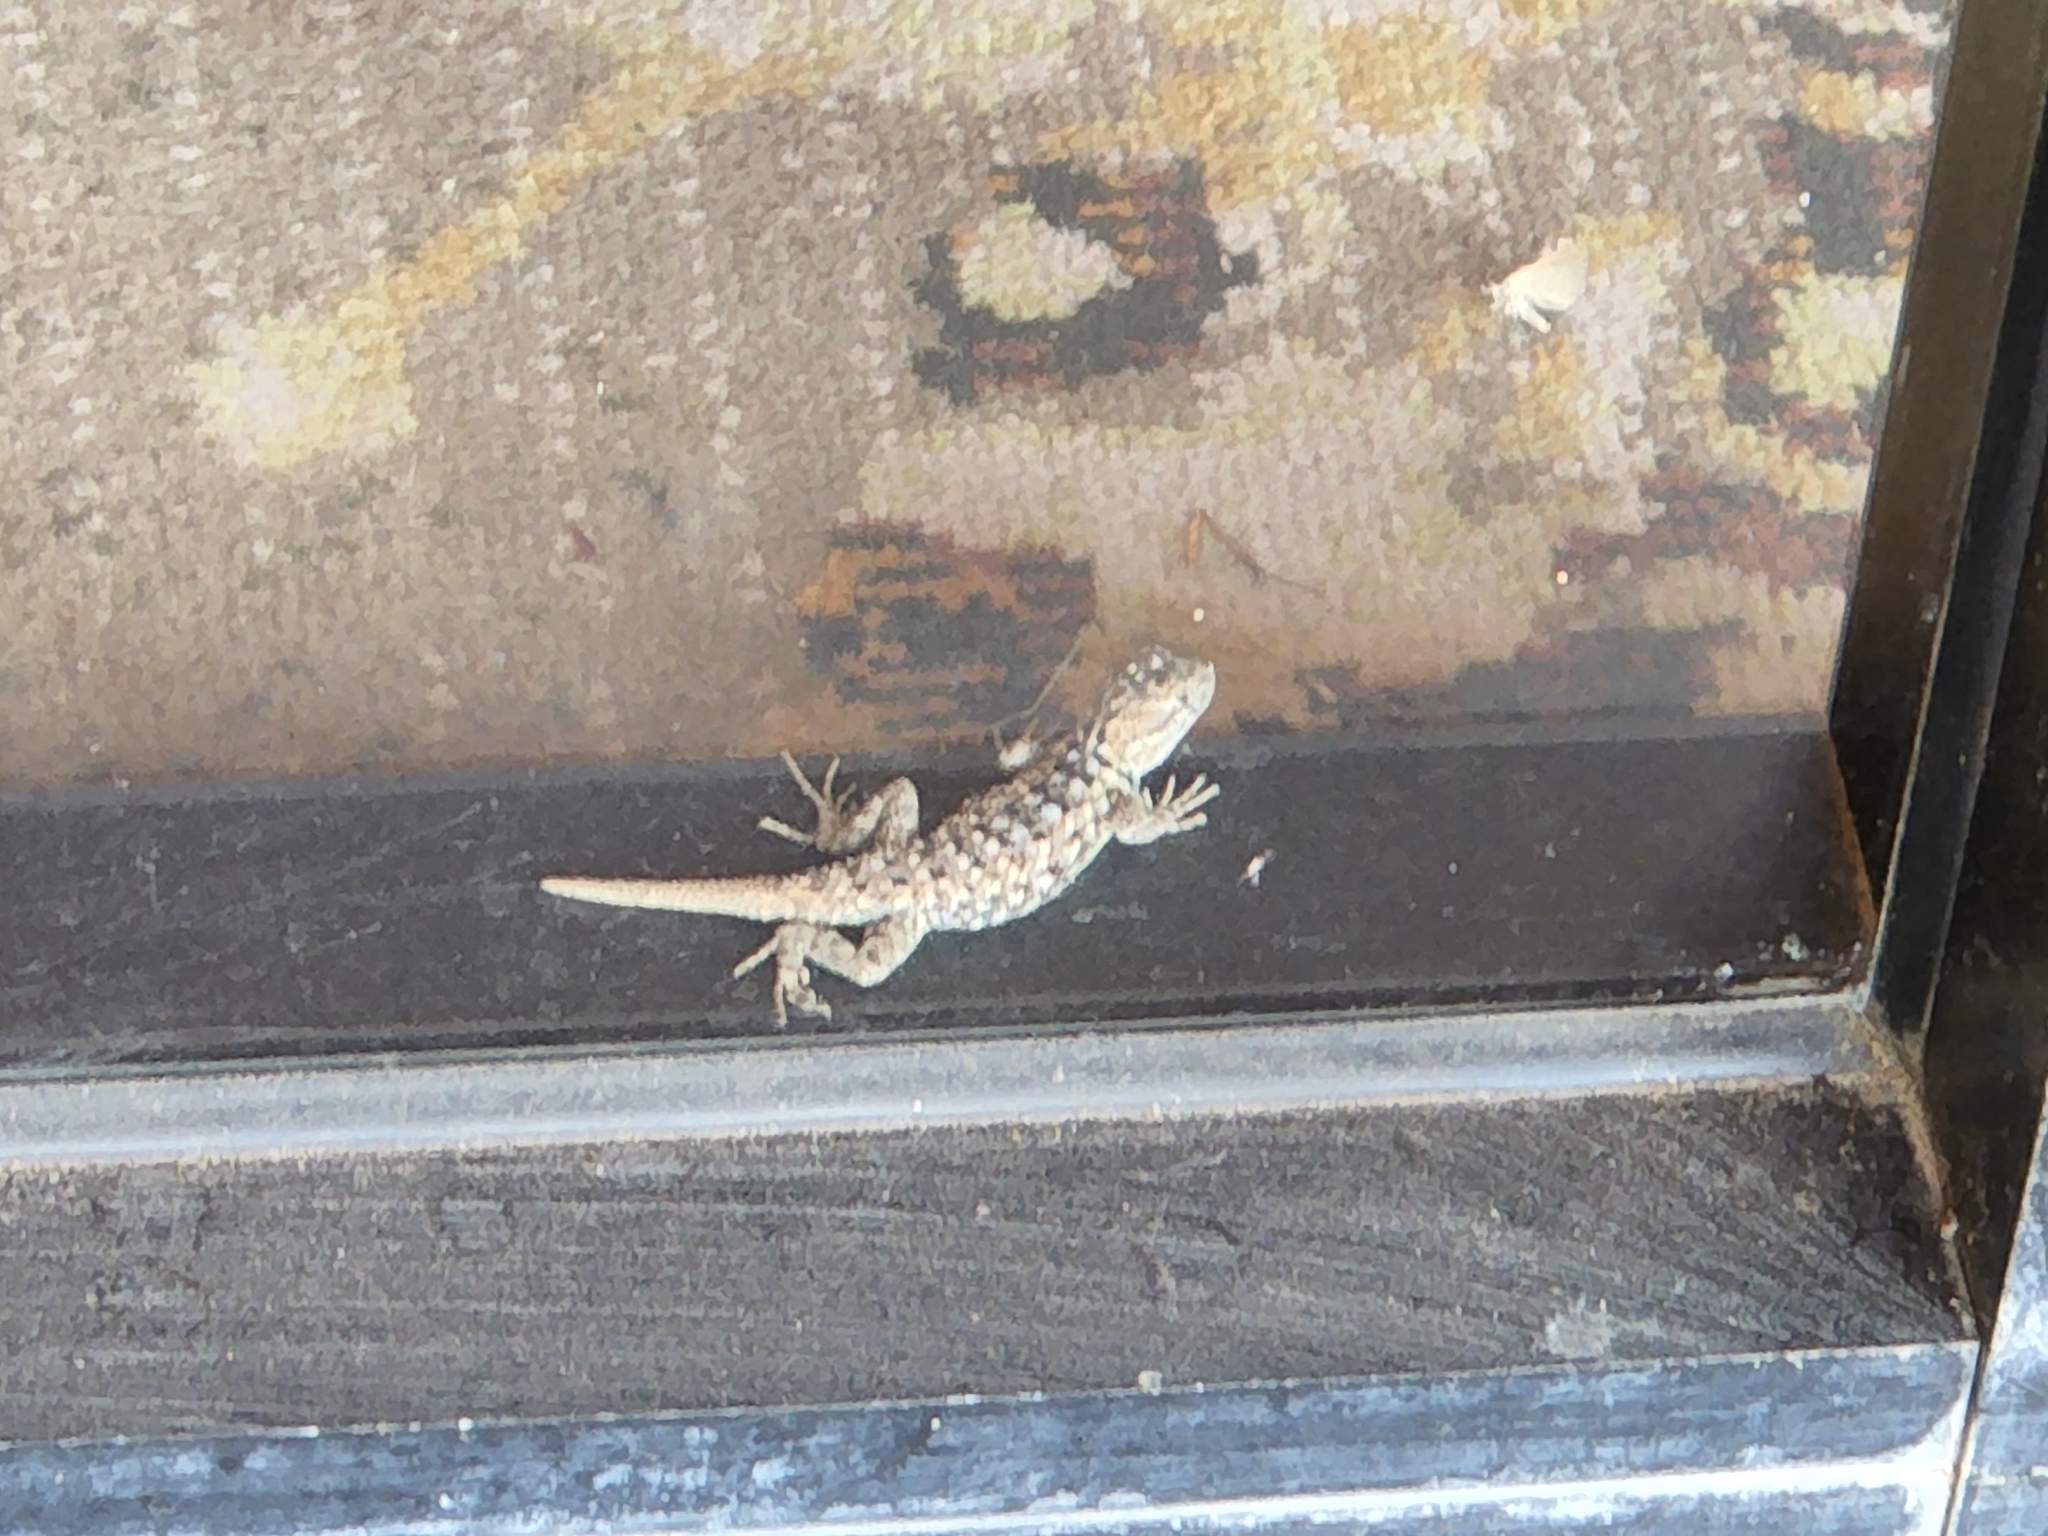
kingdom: Animalia
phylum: Chordata
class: Squamata
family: Phrynosomatidae
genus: Sceloporus
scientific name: Sceloporus magister
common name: Desert spiny lizard
